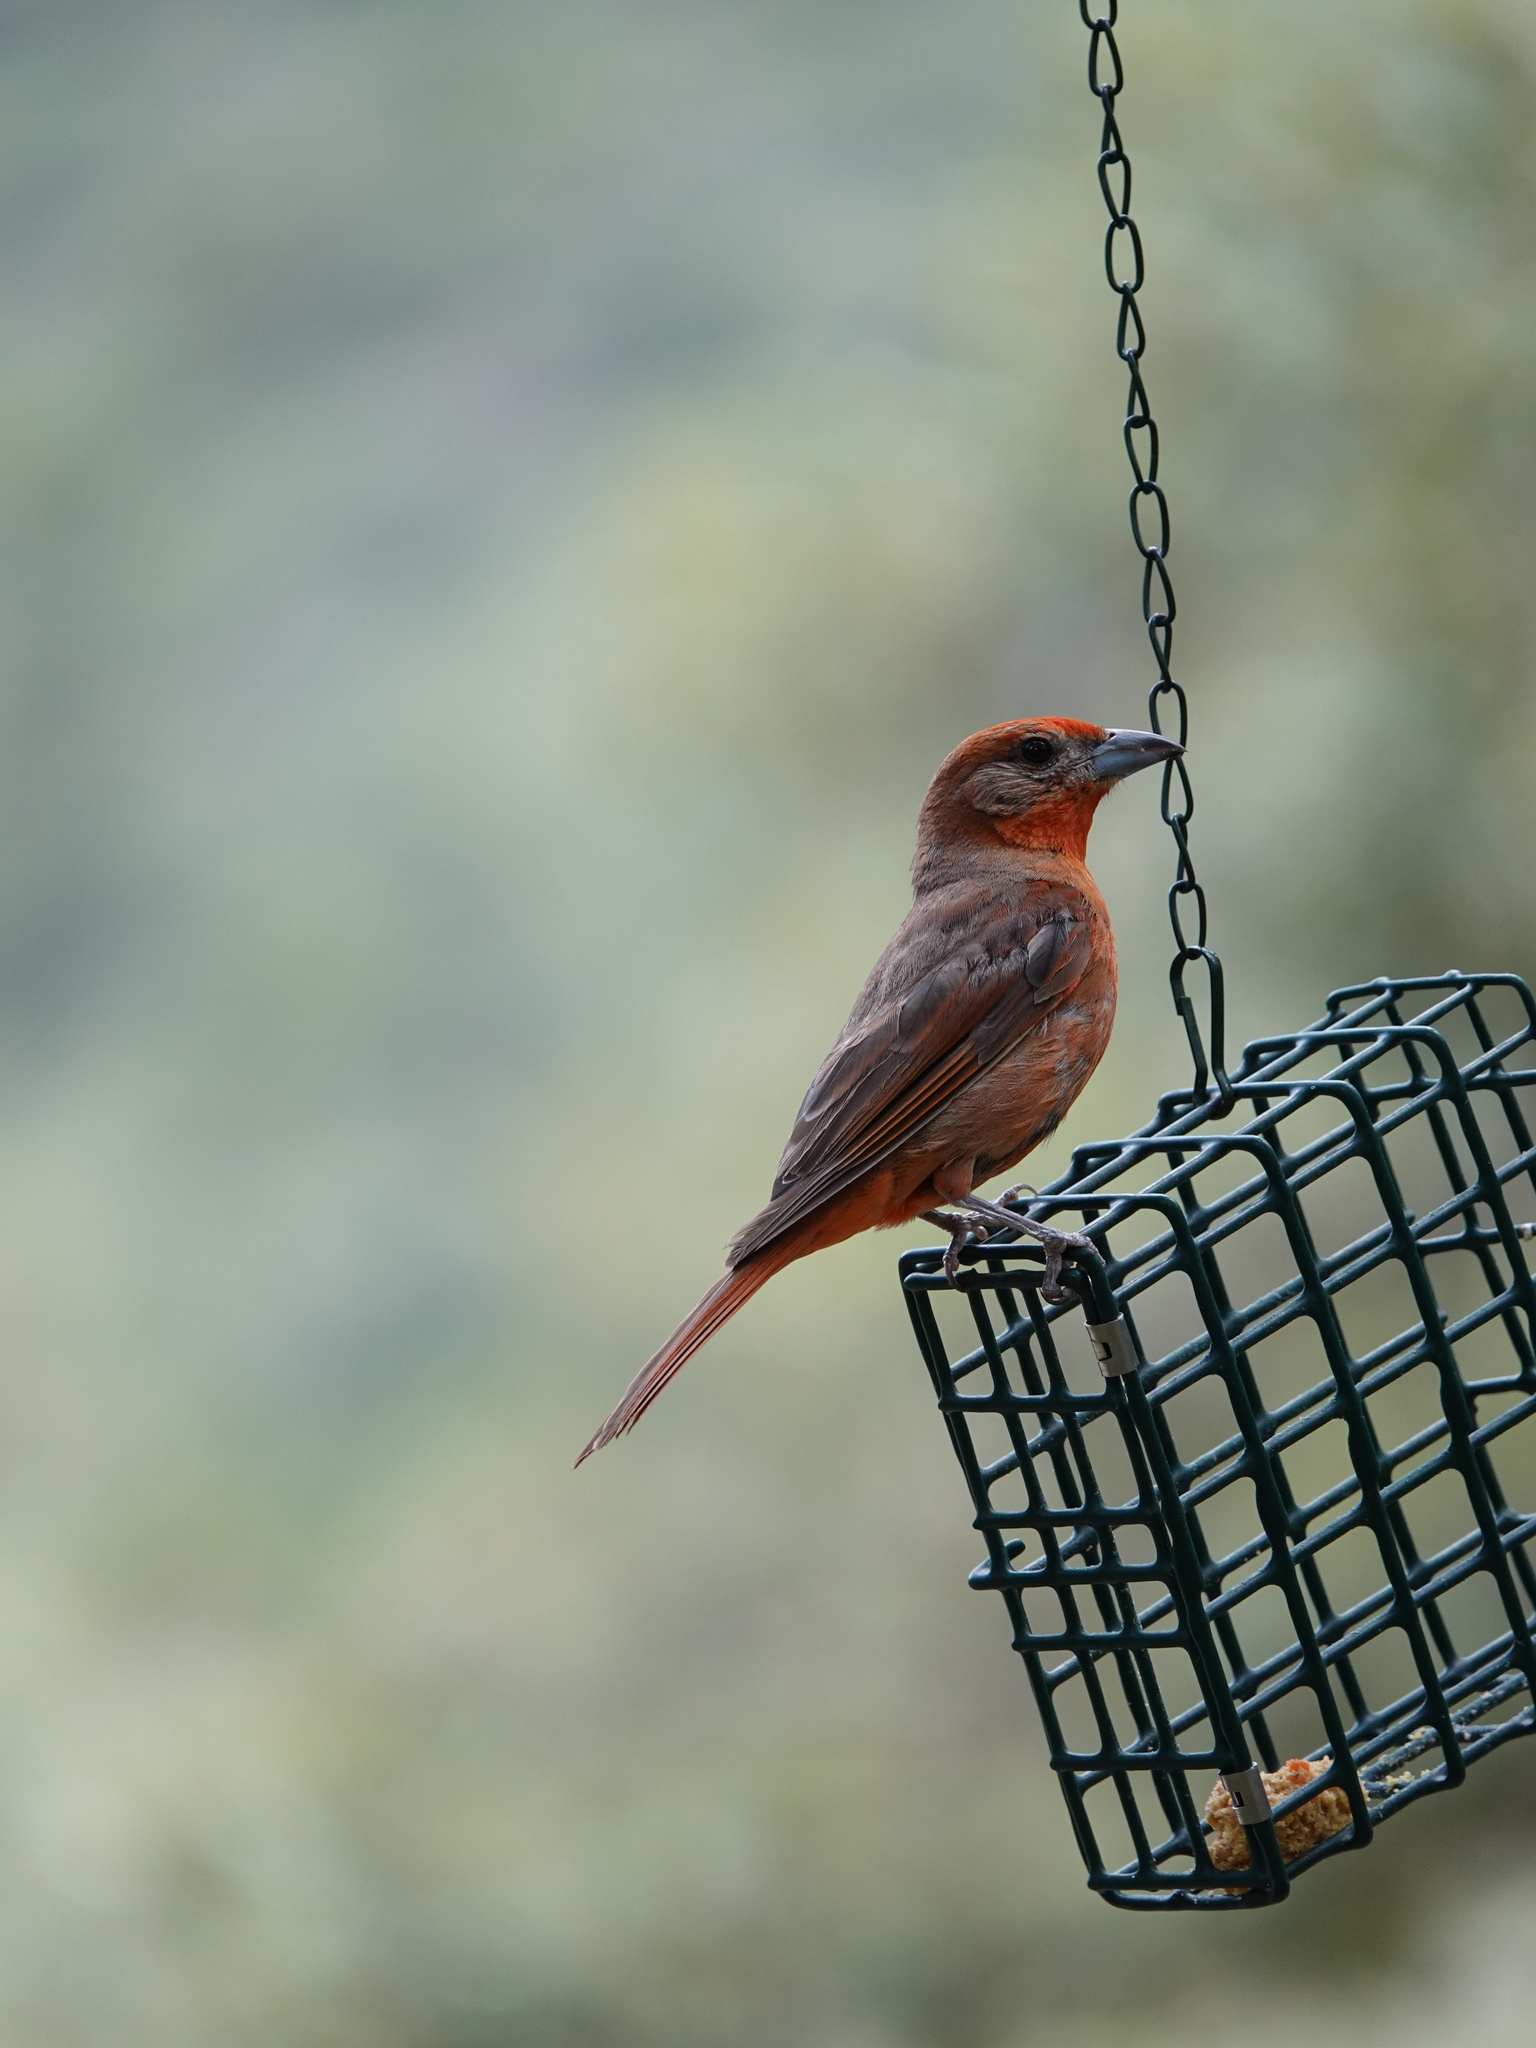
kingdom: Animalia
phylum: Chordata
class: Aves
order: Passeriformes
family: Cardinalidae
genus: Piranga
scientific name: Piranga flava
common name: Red tanager
